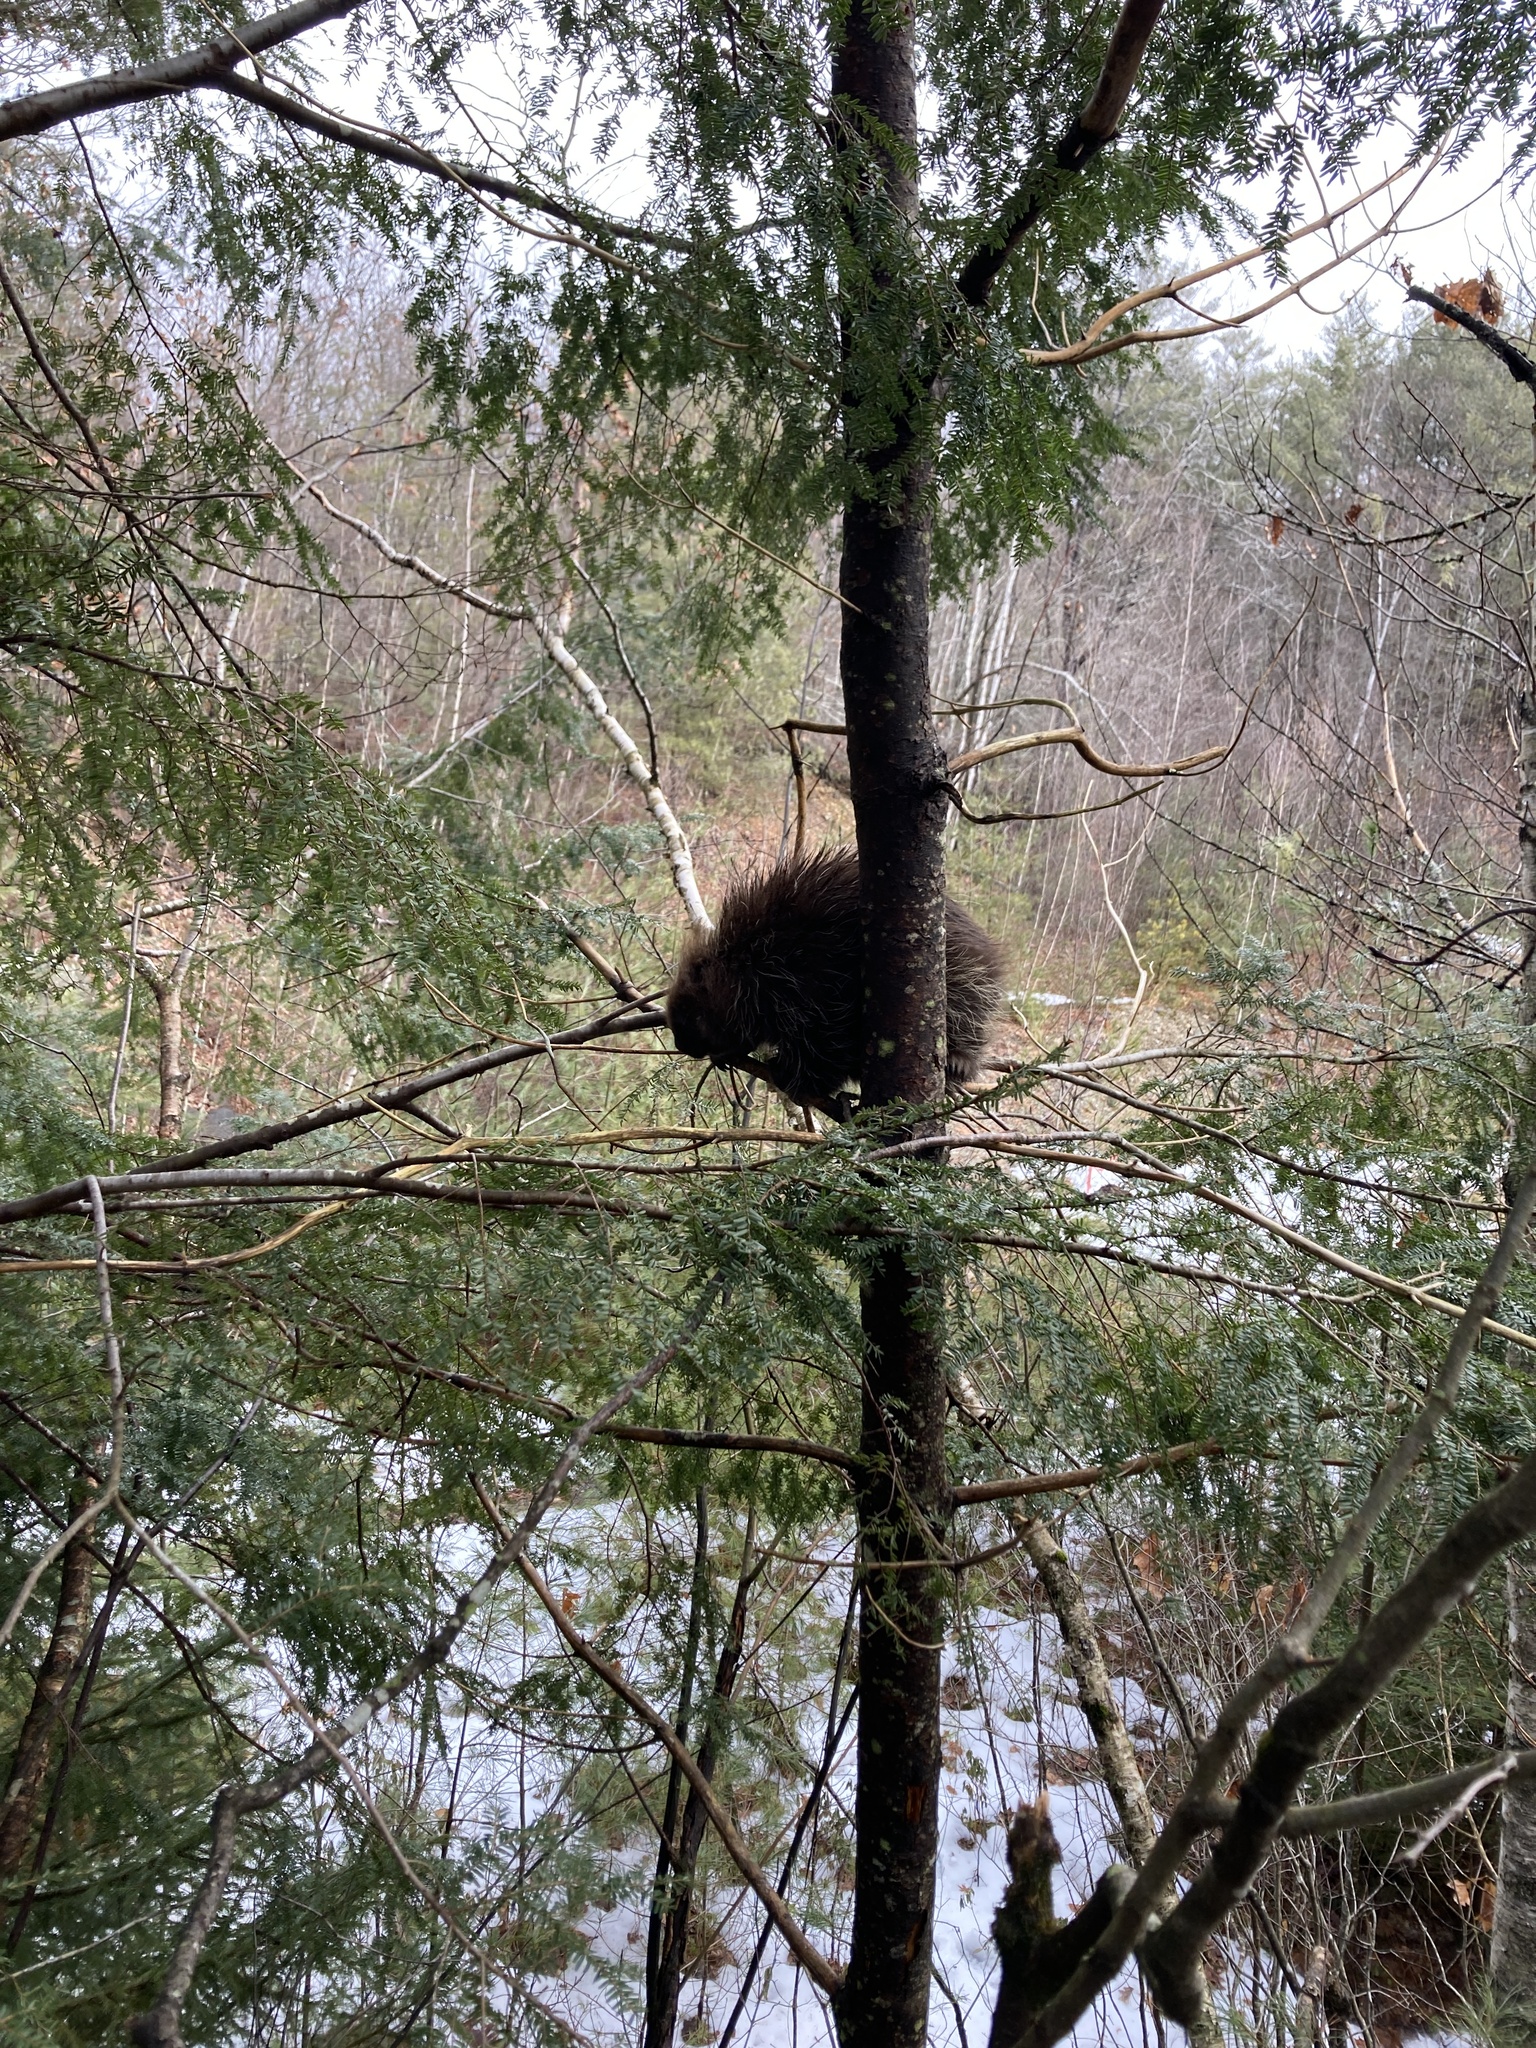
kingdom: Animalia
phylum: Chordata
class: Mammalia
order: Rodentia
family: Erethizontidae
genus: Erethizon
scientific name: Erethizon dorsatus
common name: North american porcupine
